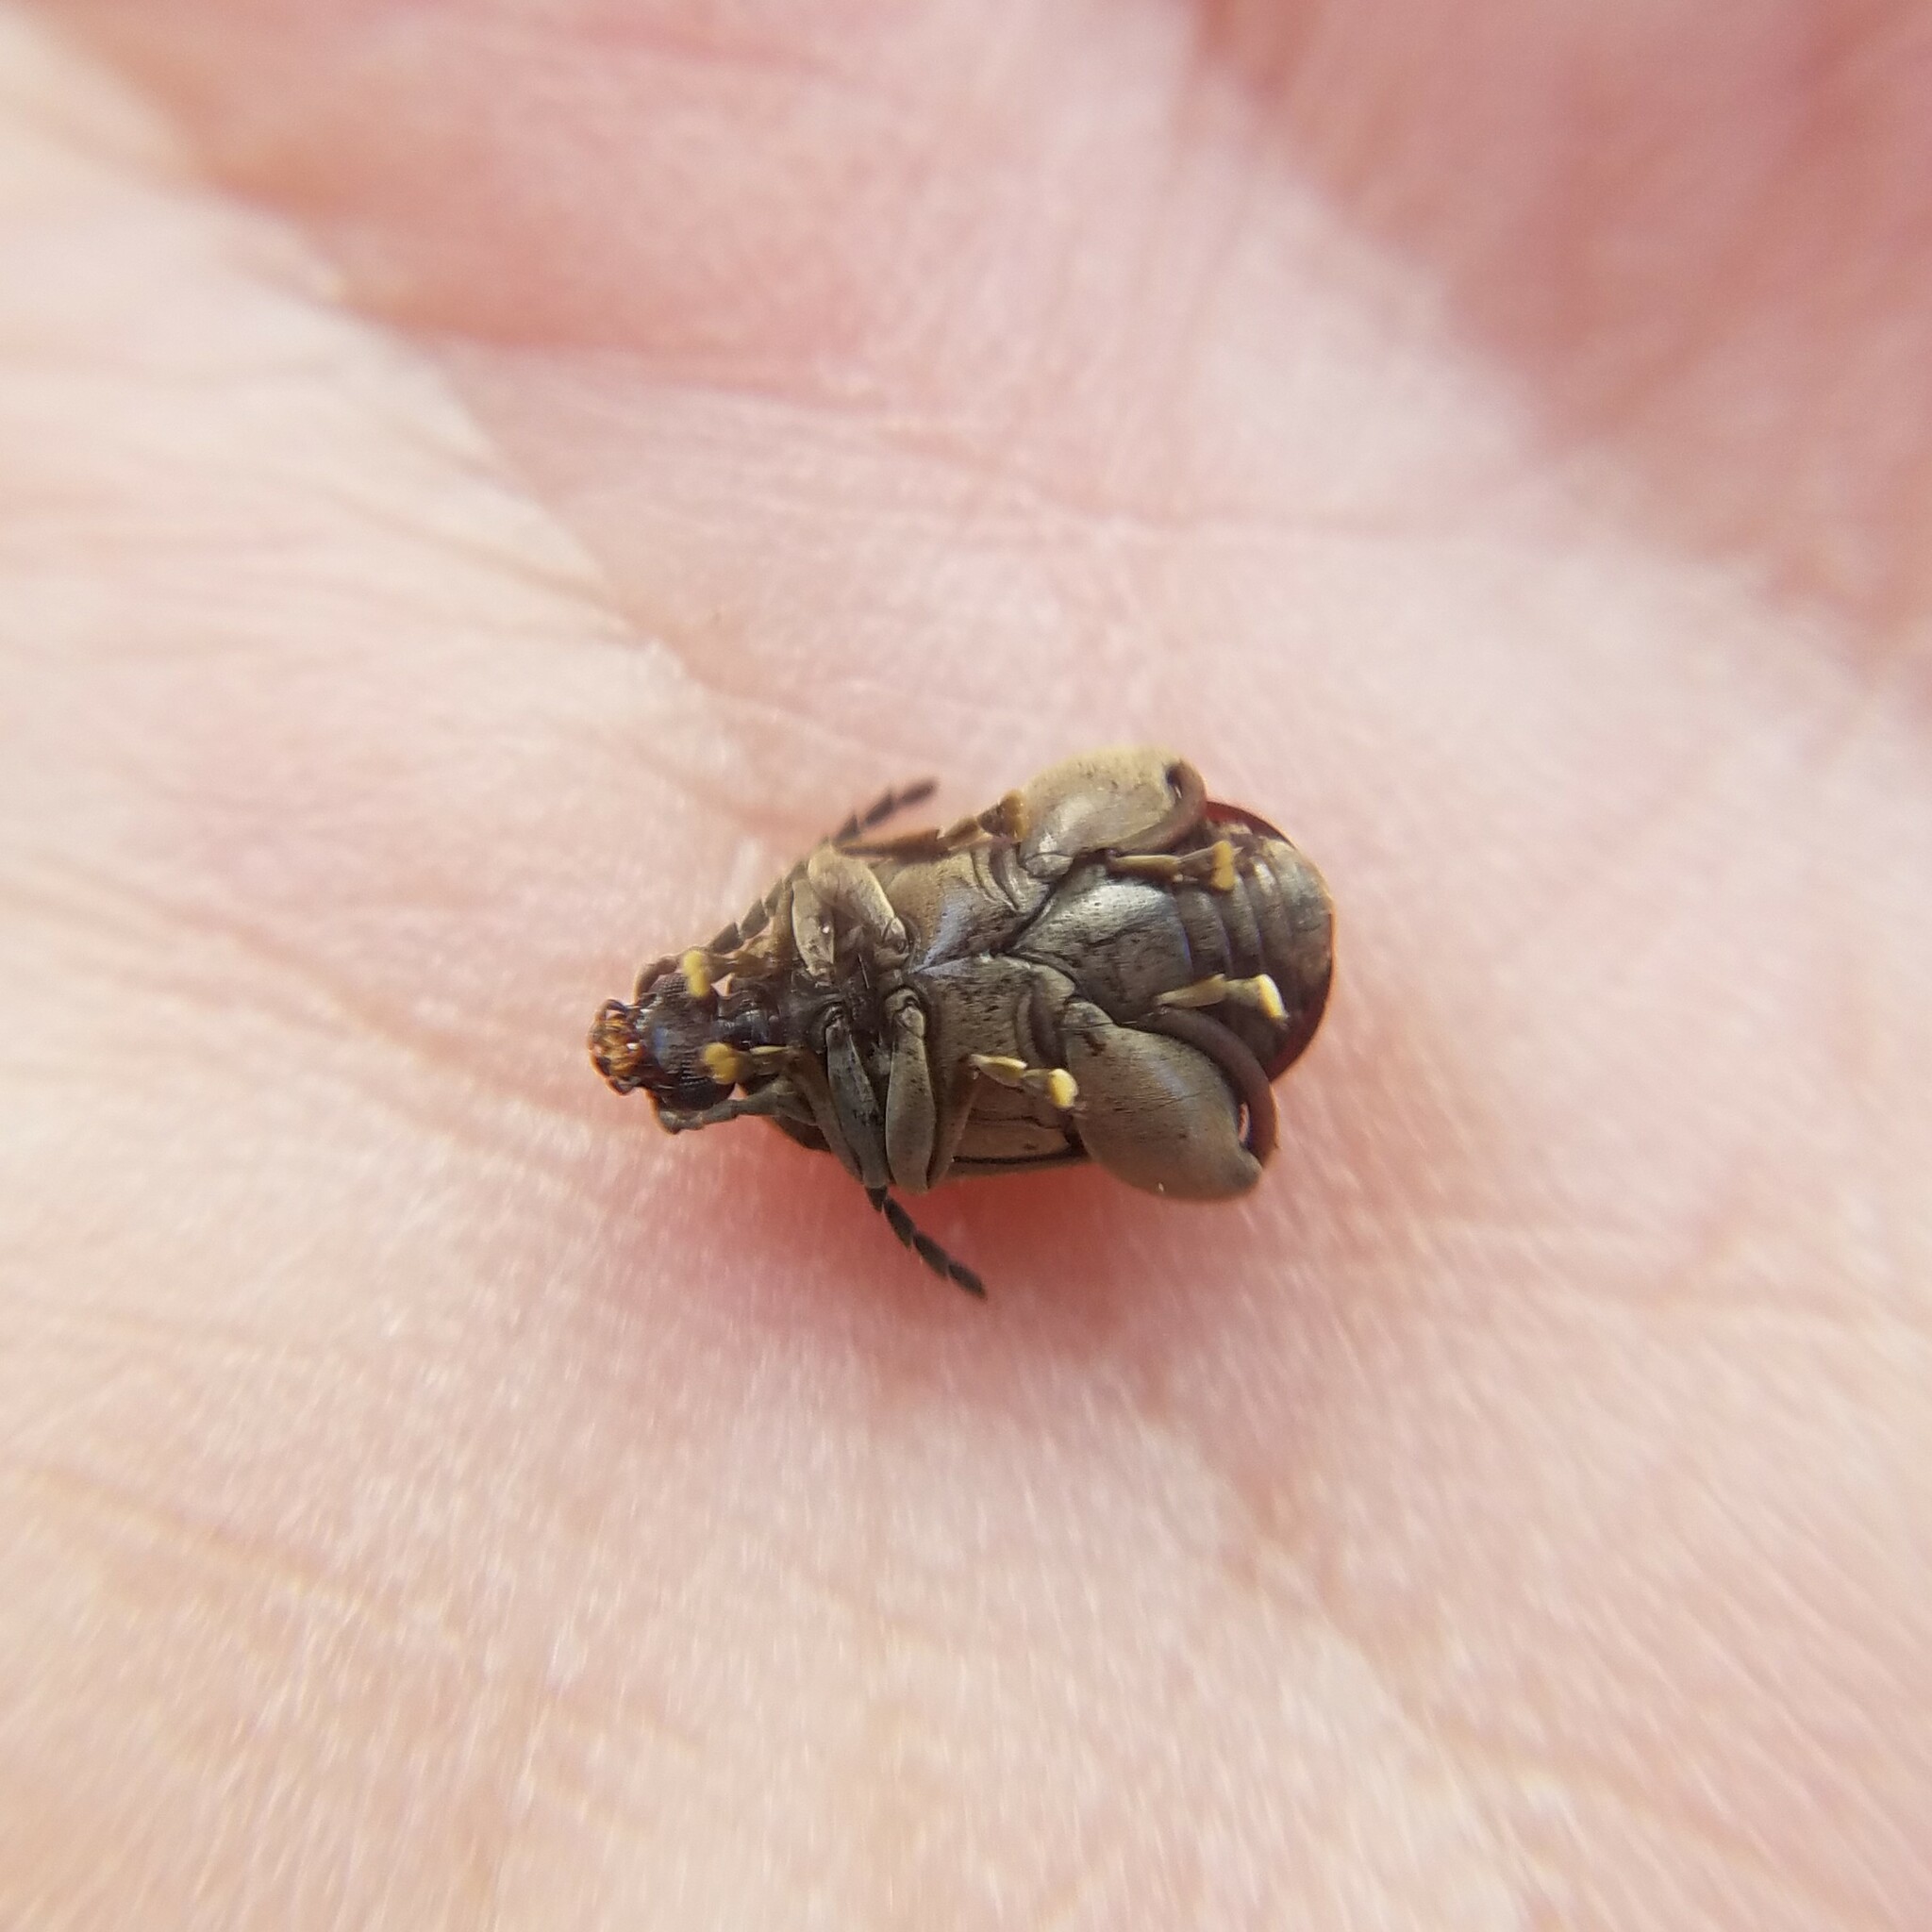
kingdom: Animalia
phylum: Arthropoda
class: Insecta
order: Coleoptera
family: Chrysomelidae
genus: Caryobruchus
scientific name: Caryobruchus gleditsiae
